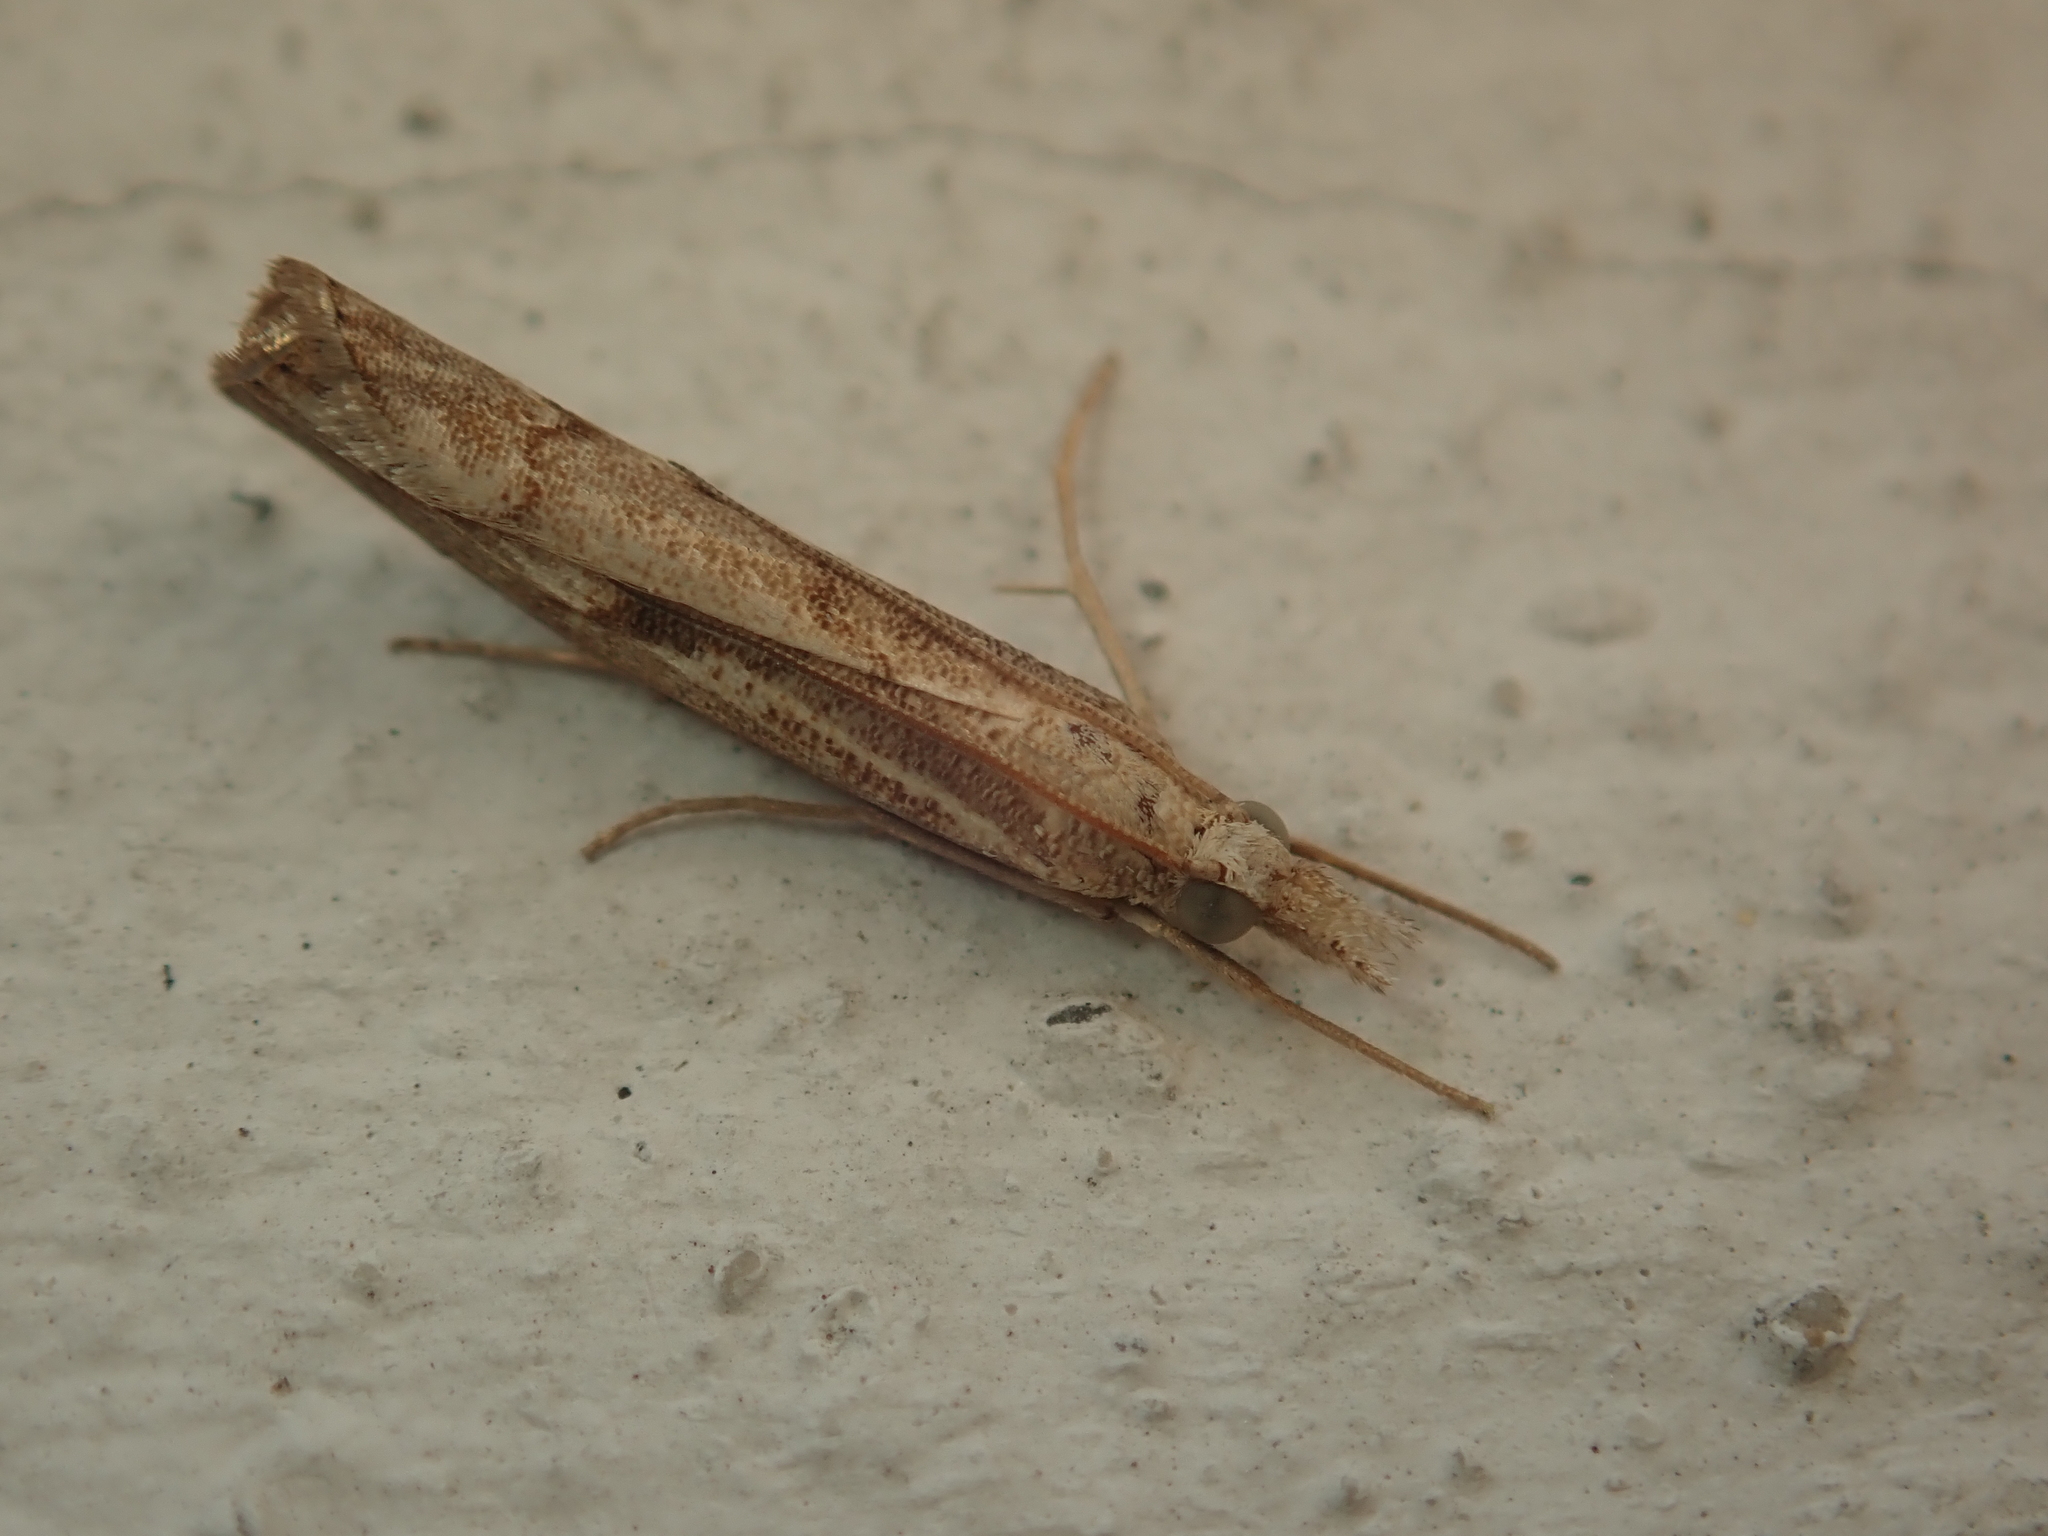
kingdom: Animalia
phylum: Arthropoda
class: Insecta
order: Lepidoptera
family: Crambidae
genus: Agriphila
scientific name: Agriphila geniculea
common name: Elbow-stripe grass-veneer
